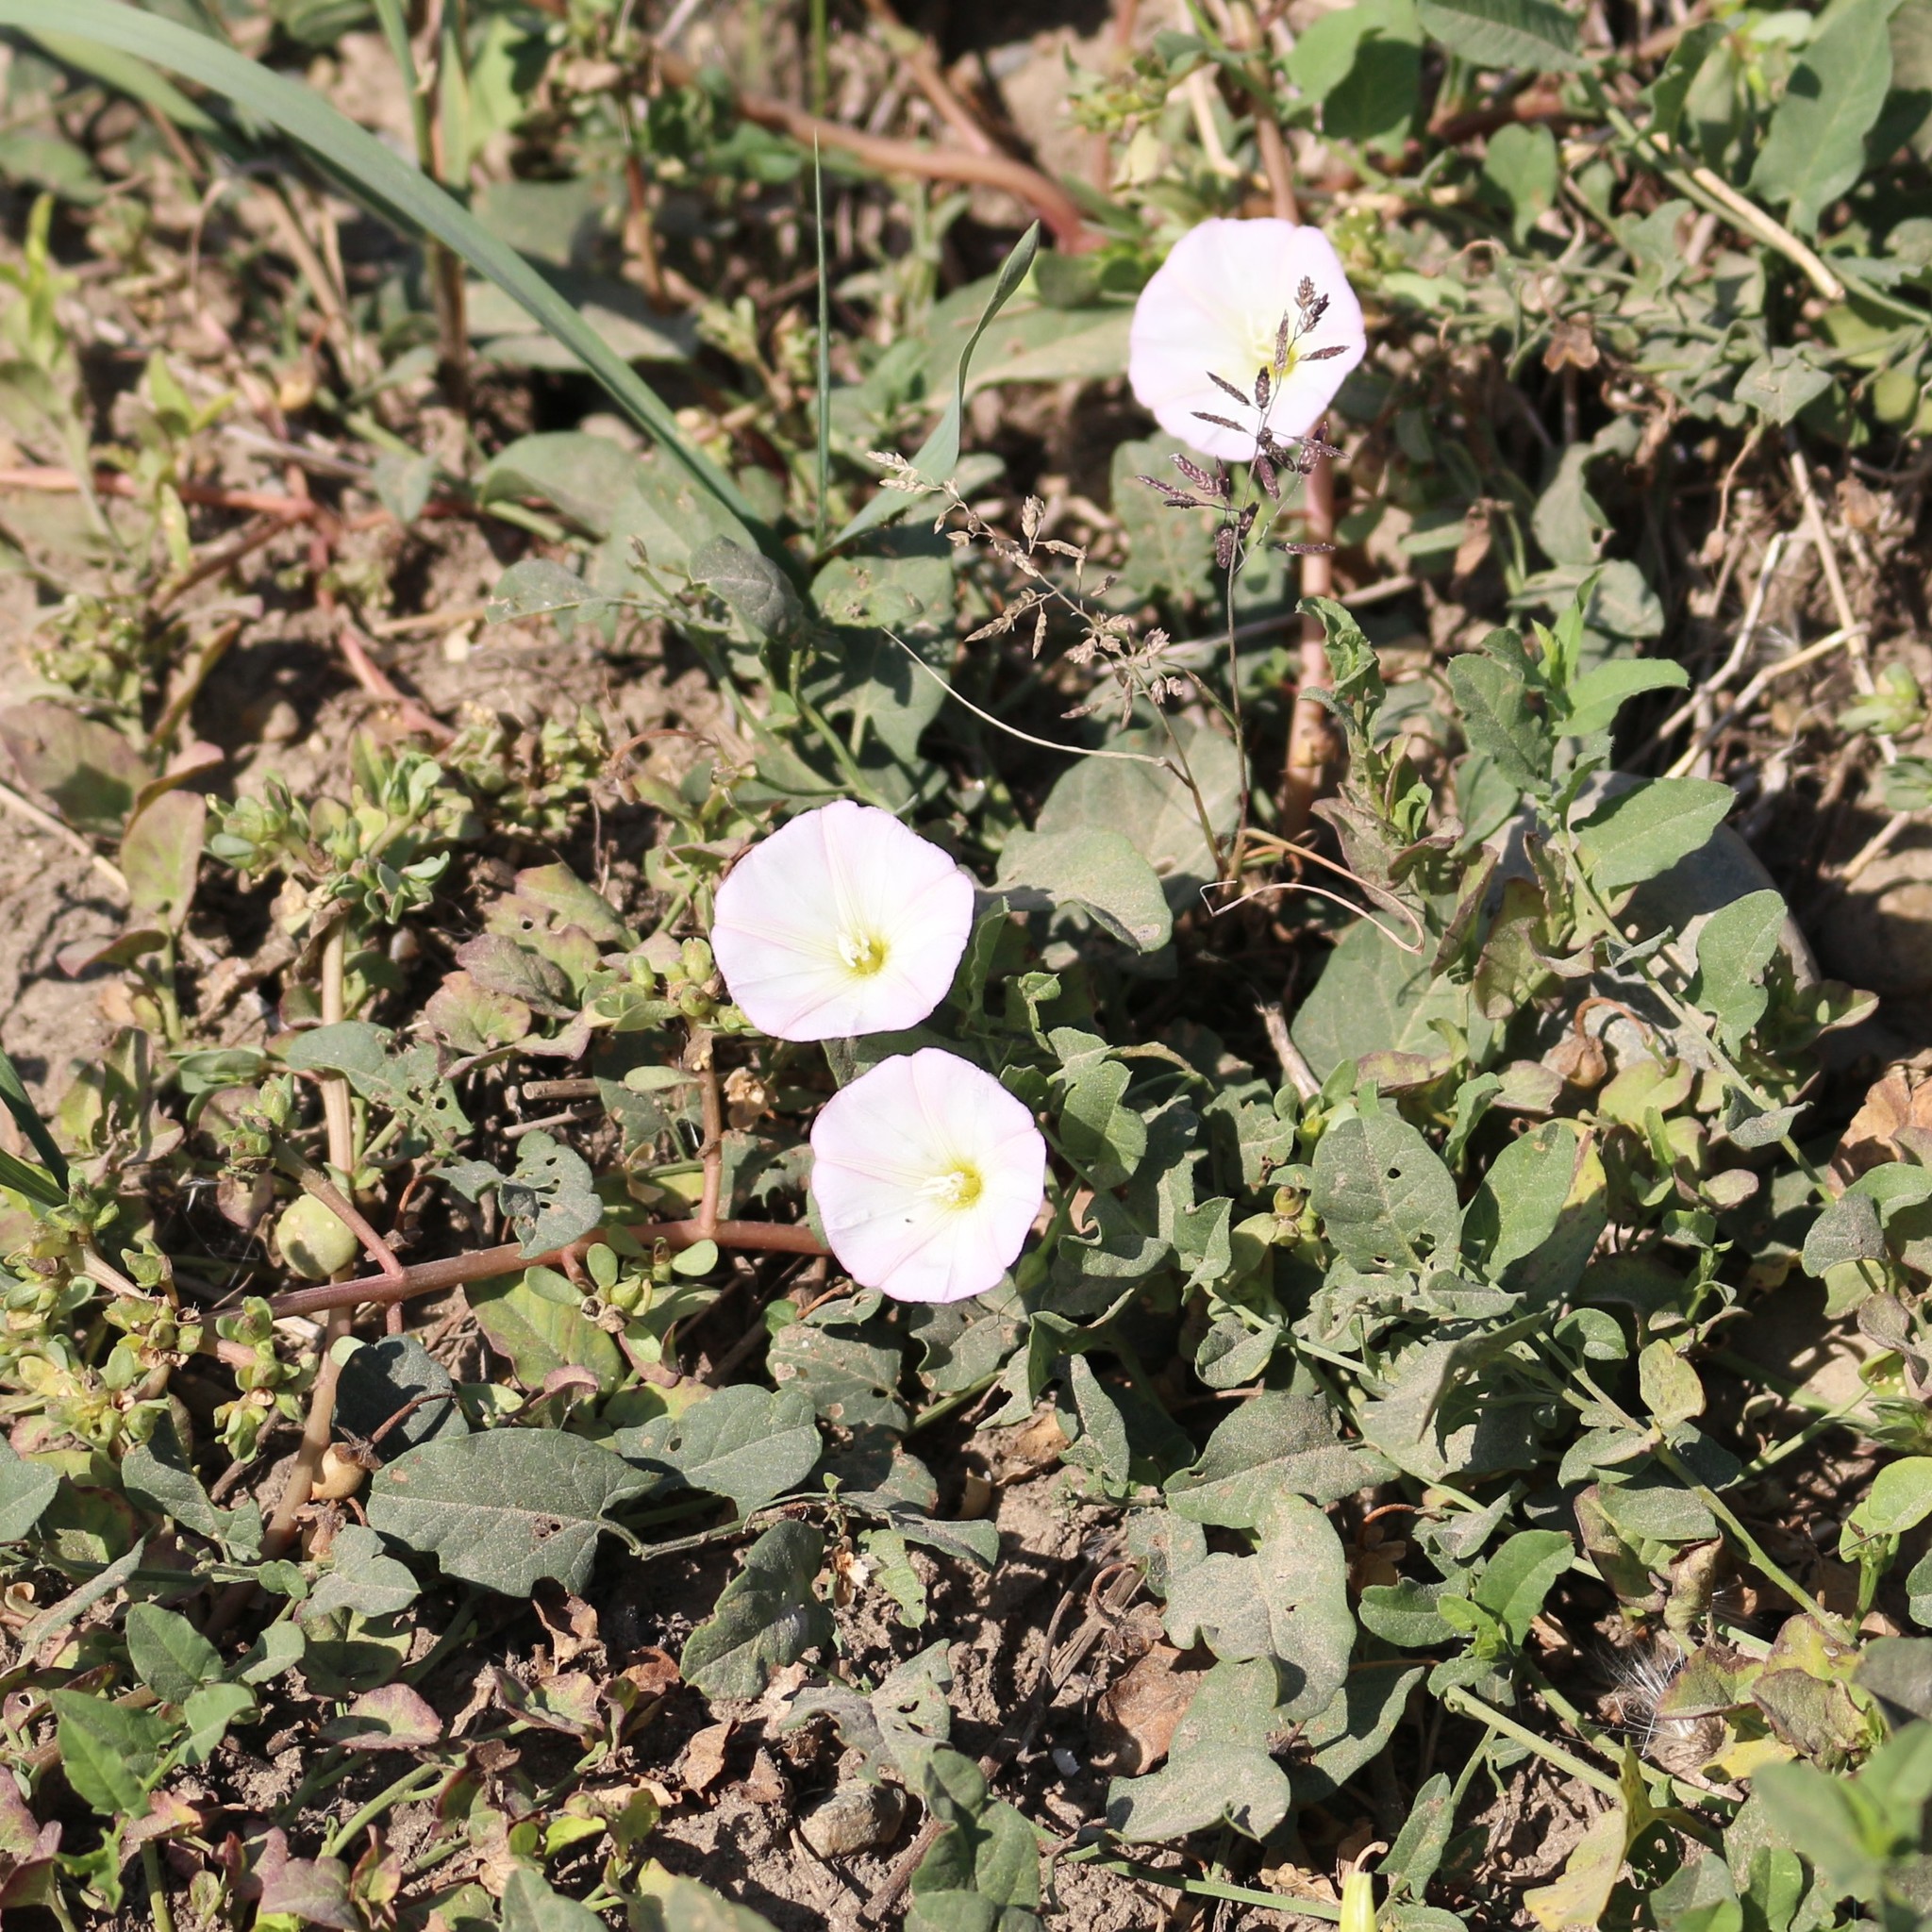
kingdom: Plantae
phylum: Tracheophyta
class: Magnoliopsida
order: Solanales
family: Convolvulaceae
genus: Convolvulus
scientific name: Convolvulus arvensis
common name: Field bindweed
